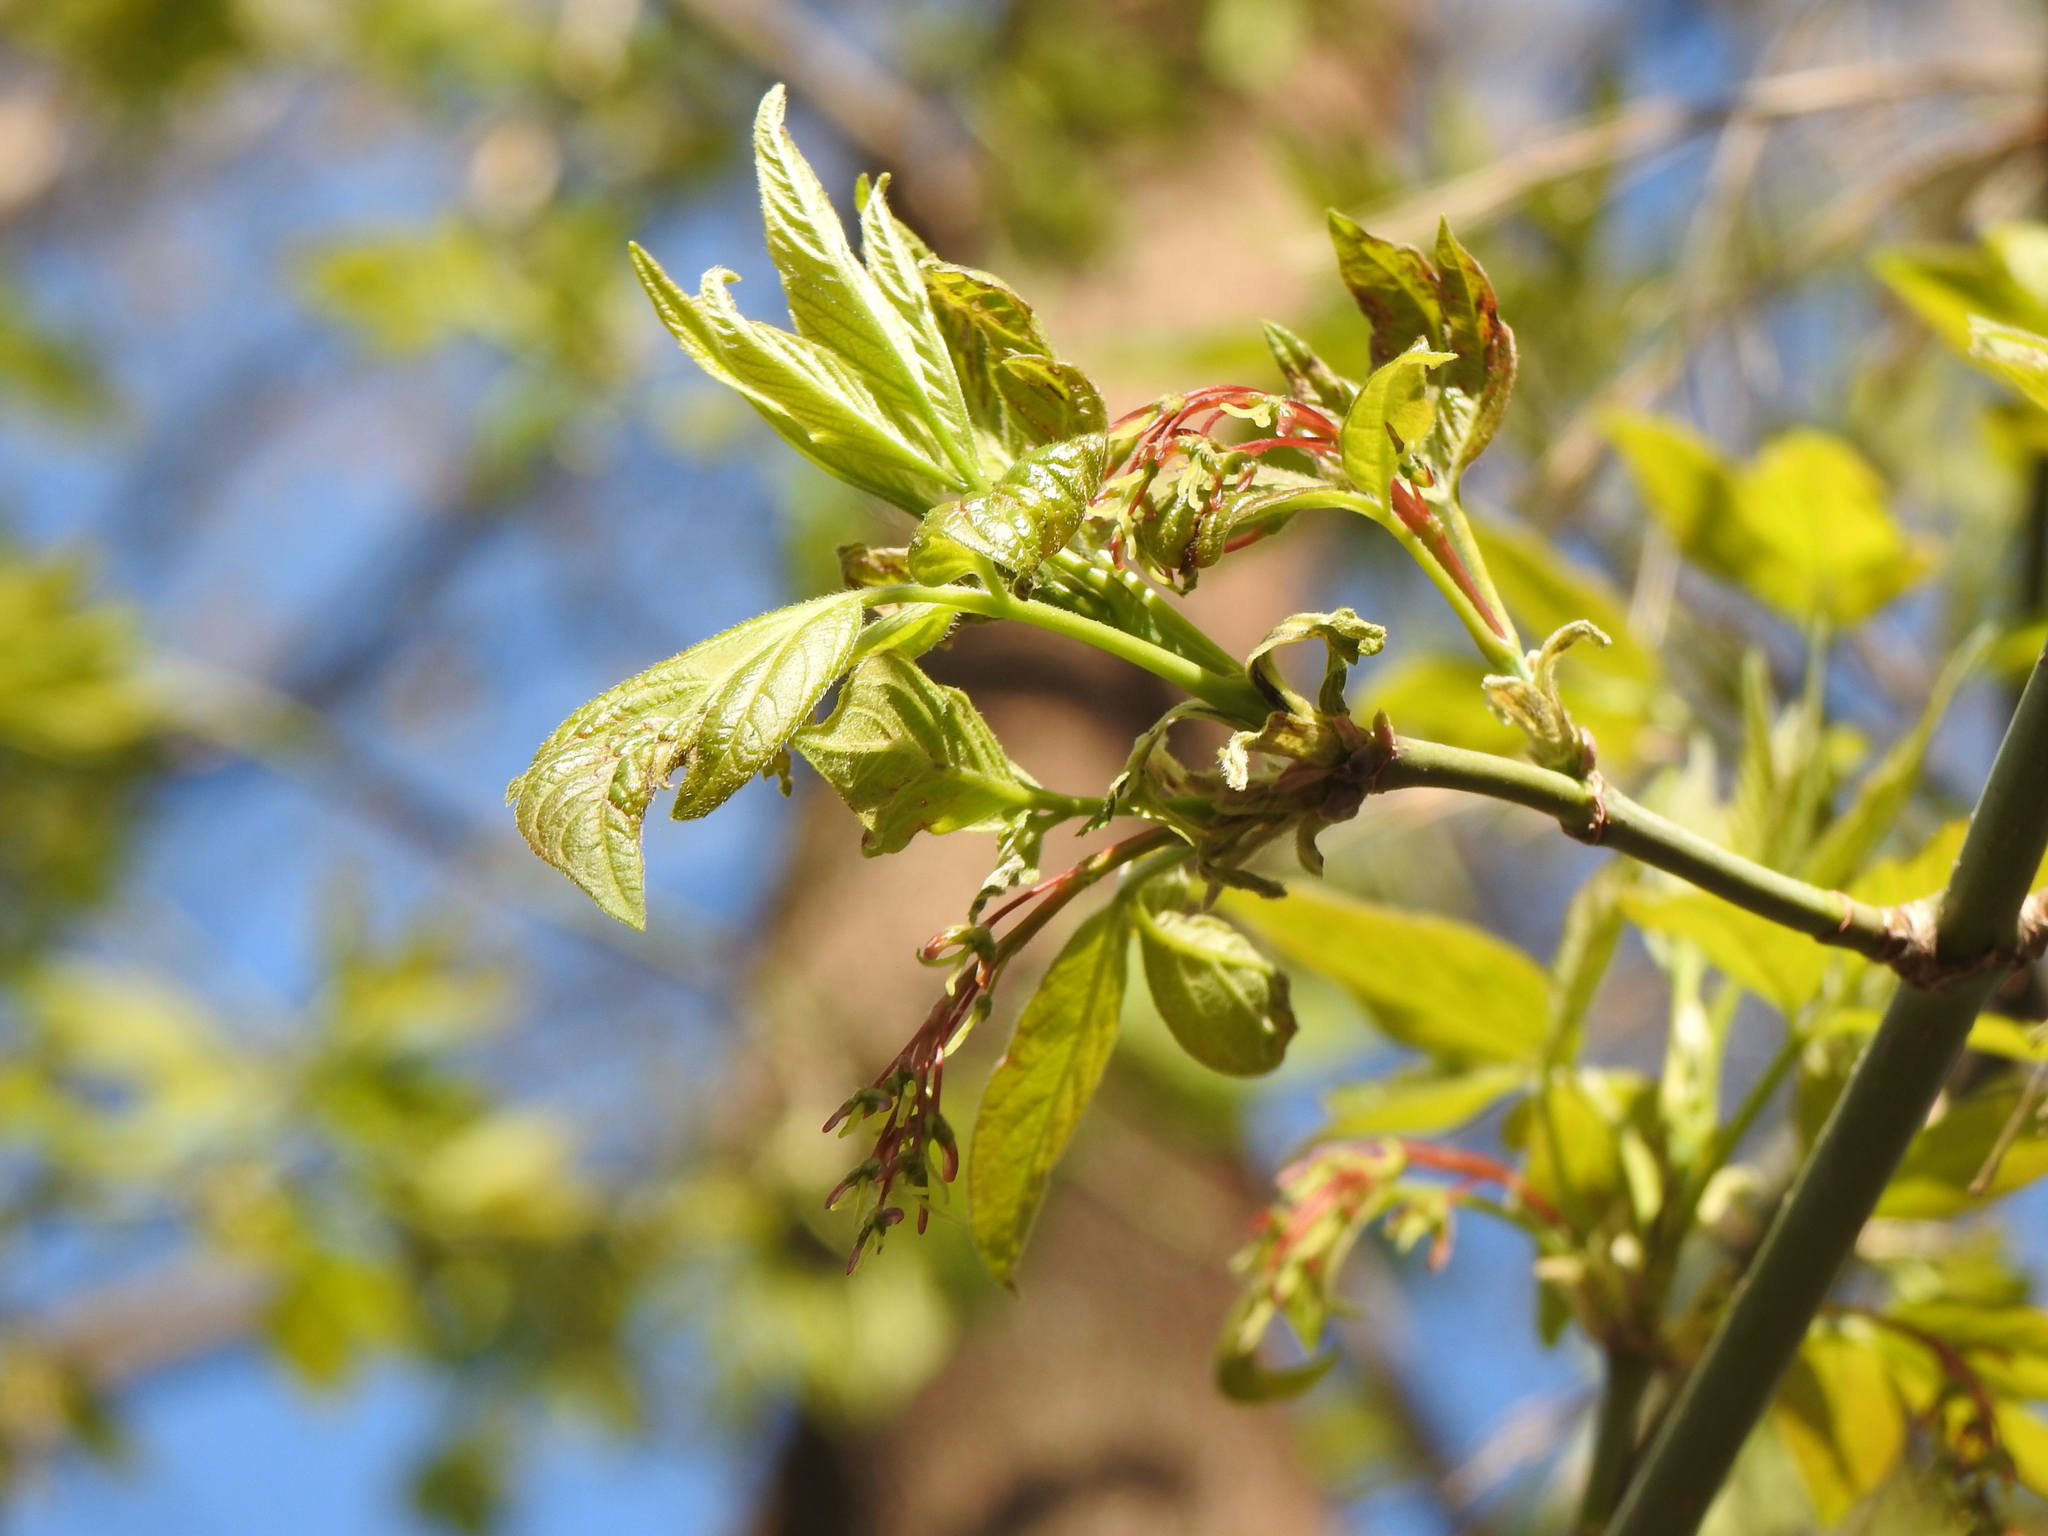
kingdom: Plantae
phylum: Tracheophyta
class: Magnoliopsida
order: Sapindales
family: Sapindaceae
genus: Acer
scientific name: Acer negundo
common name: Ashleaf maple
